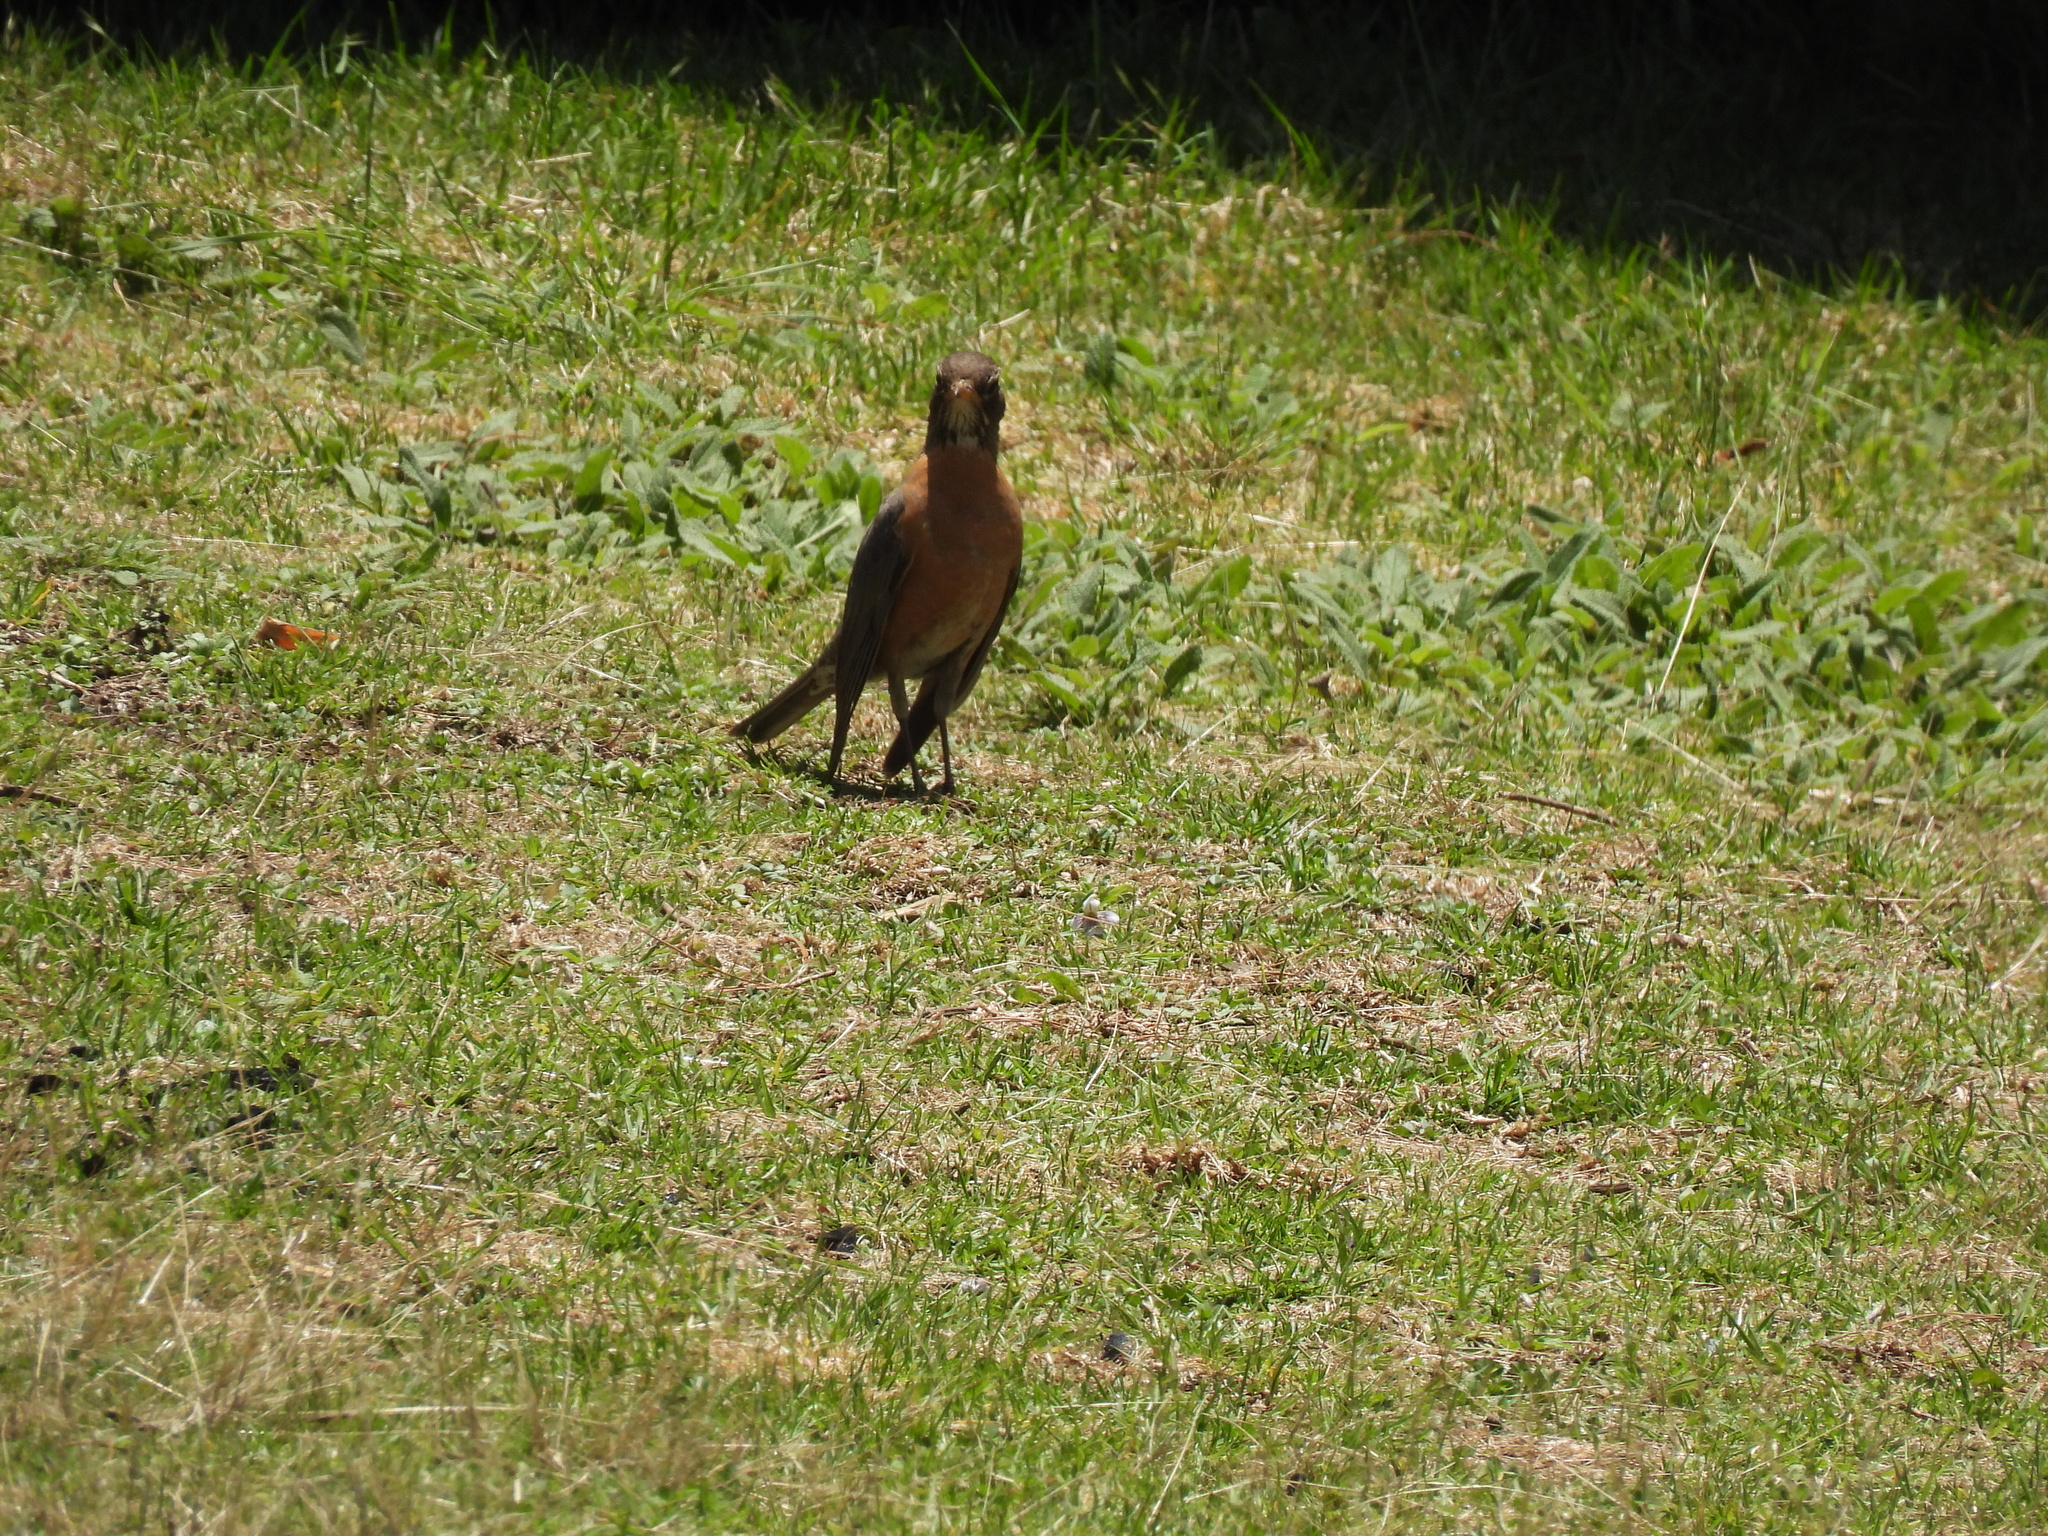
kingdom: Animalia
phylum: Chordata
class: Aves
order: Passeriformes
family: Turdidae
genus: Turdus
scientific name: Turdus migratorius
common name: American robin
